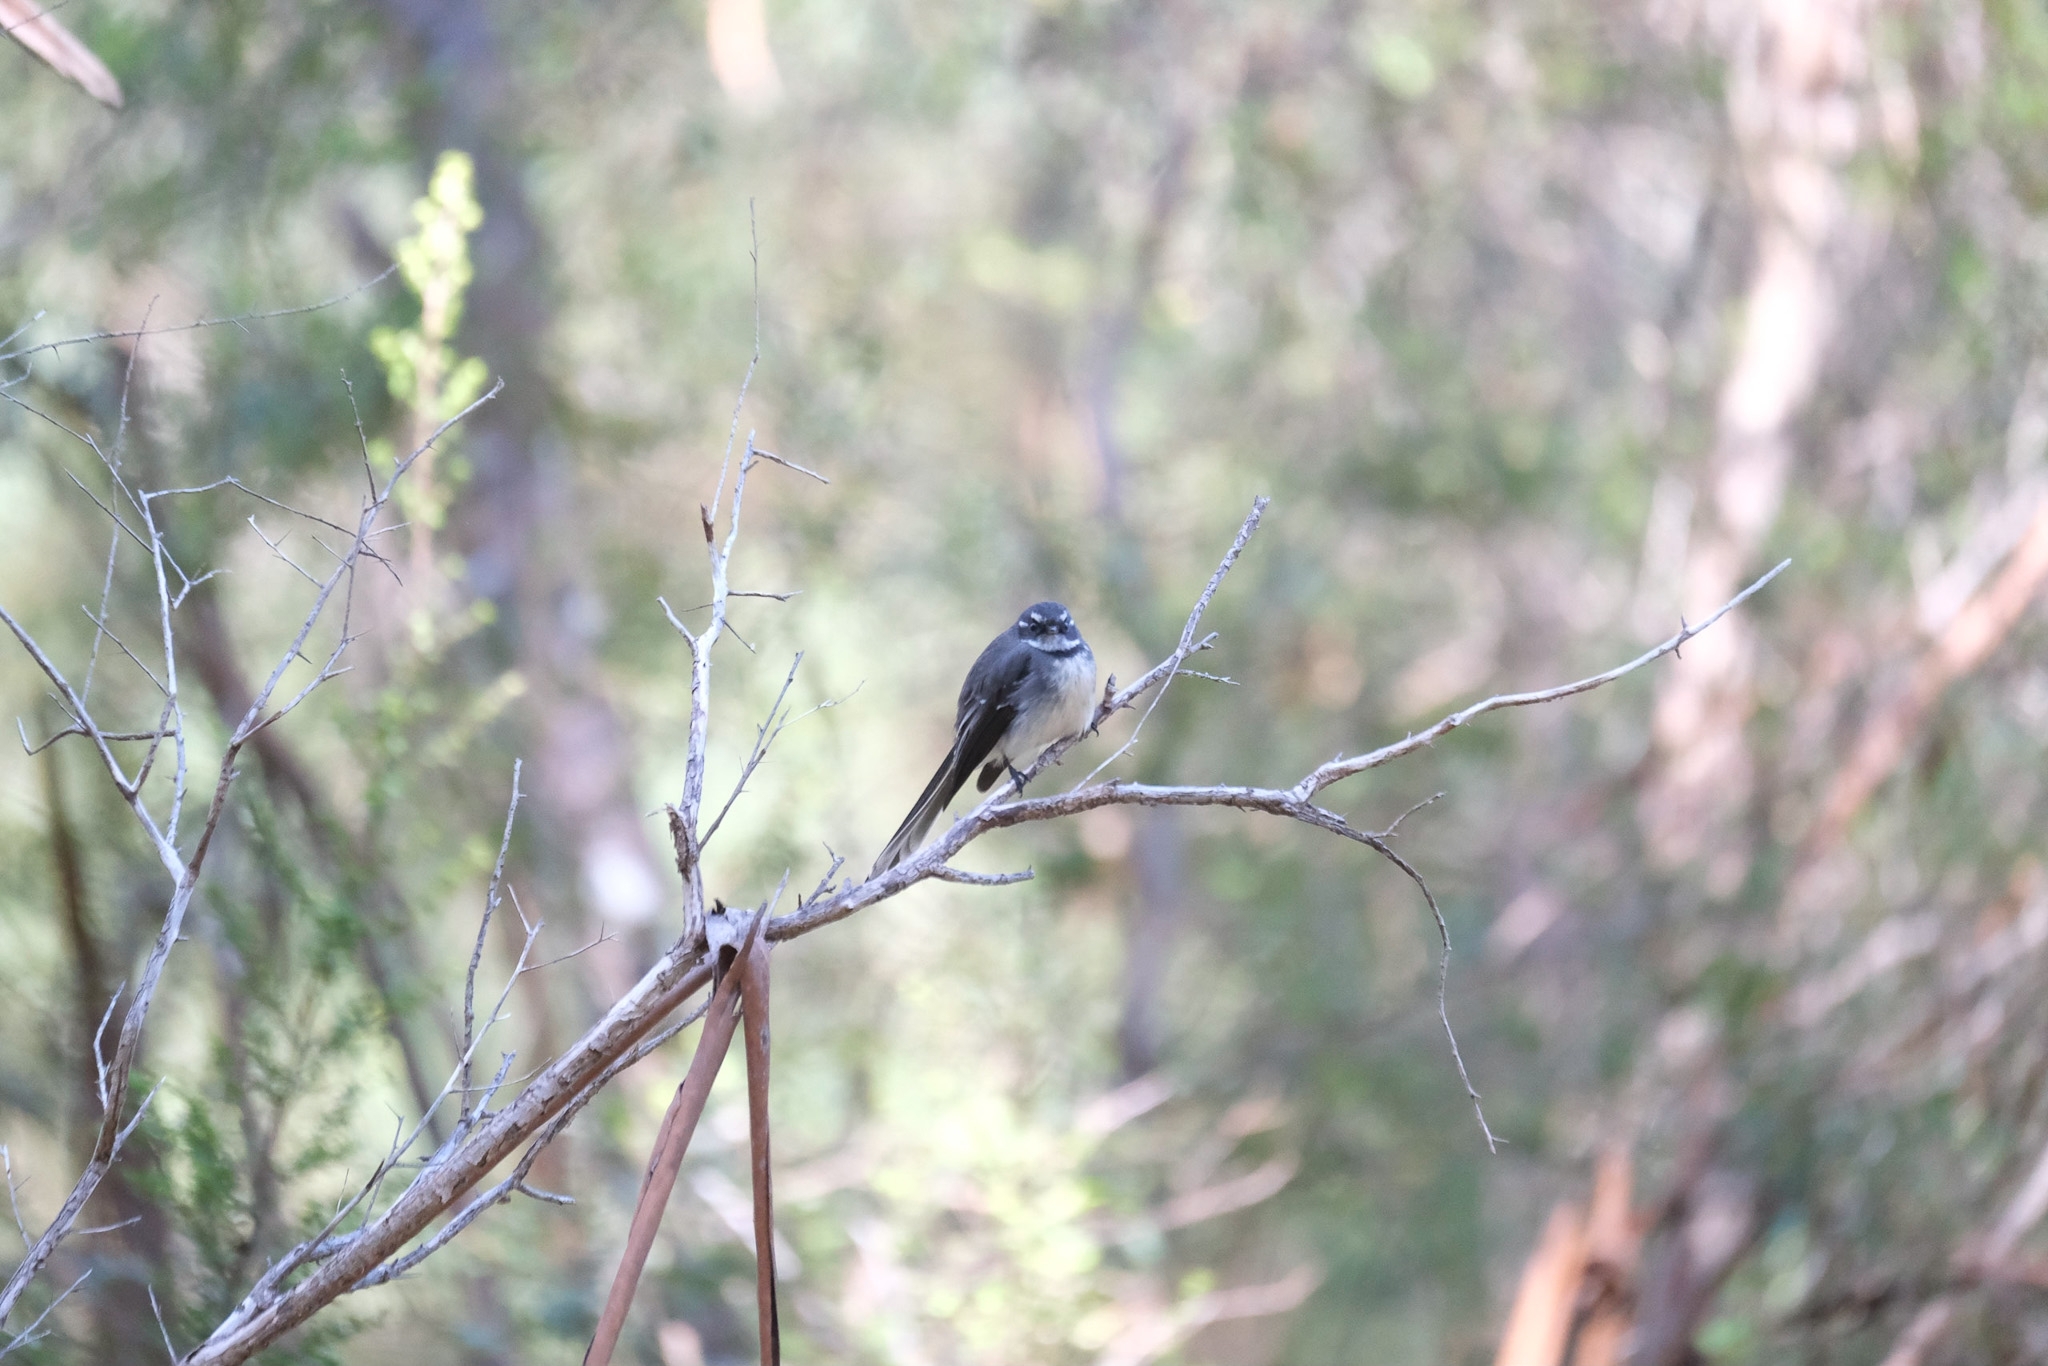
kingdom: Animalia
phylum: Chordata
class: Aves
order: Passeriformes
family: Rhipiduridae
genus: Rhipidura
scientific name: Rhipidura albiscapa
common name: Grey fantail
